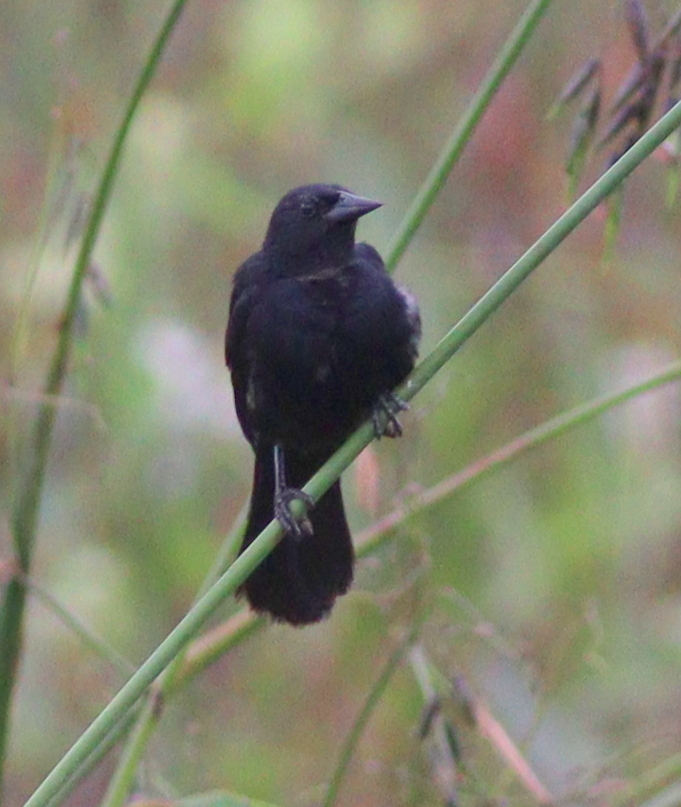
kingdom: Animalia
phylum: Chordata
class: Aves
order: Passeriformes
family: Icteridae
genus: Agelasticus
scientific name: Agelasticus cyanopus
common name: Unicolored blackbird
